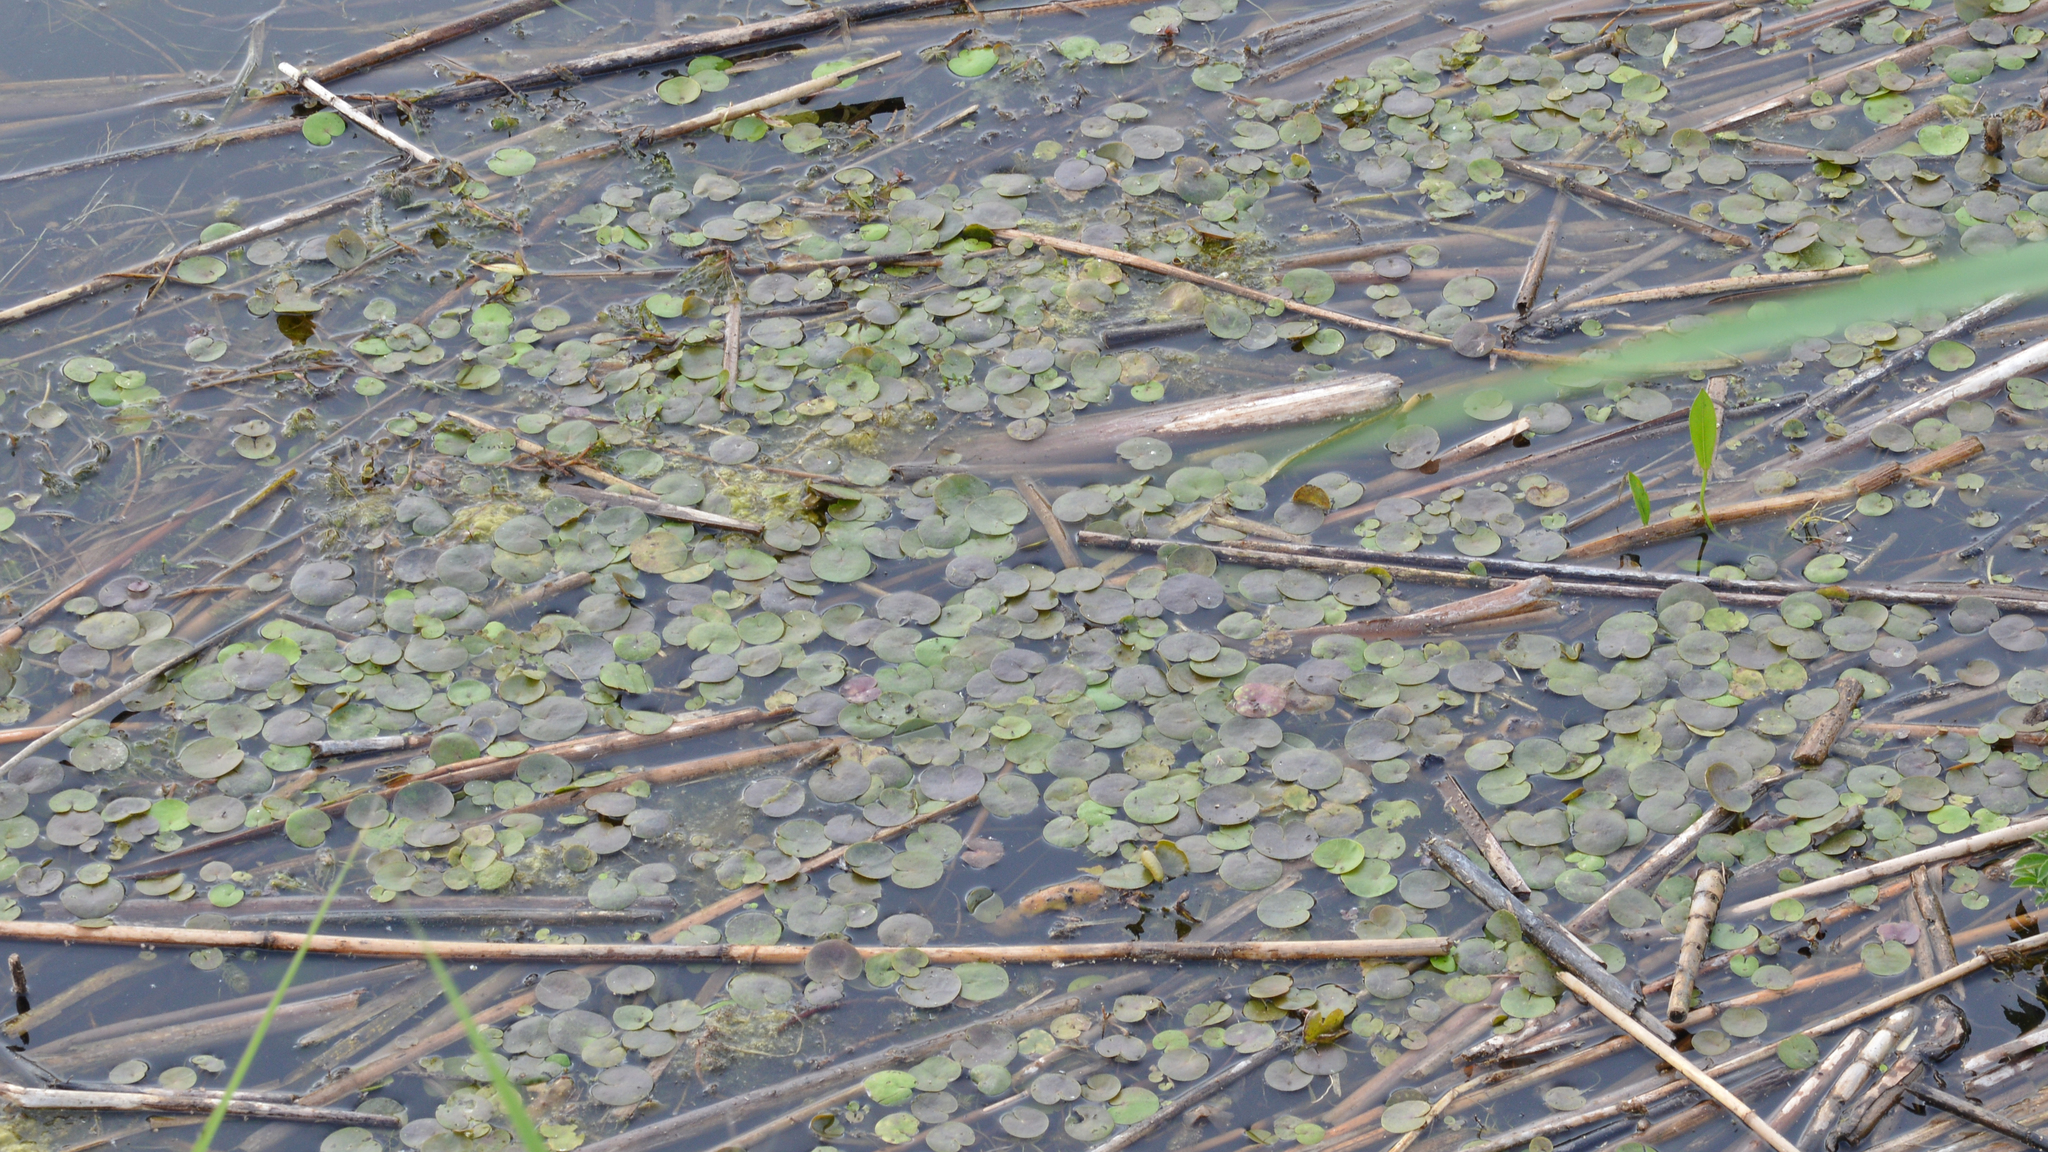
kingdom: Plantae
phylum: Tracheophyta
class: Liliopsida
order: Alismatales
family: Hydrocharitaceae
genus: Hydrocharis
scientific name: Hydrocharis morsus-ranae
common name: Frogbit
